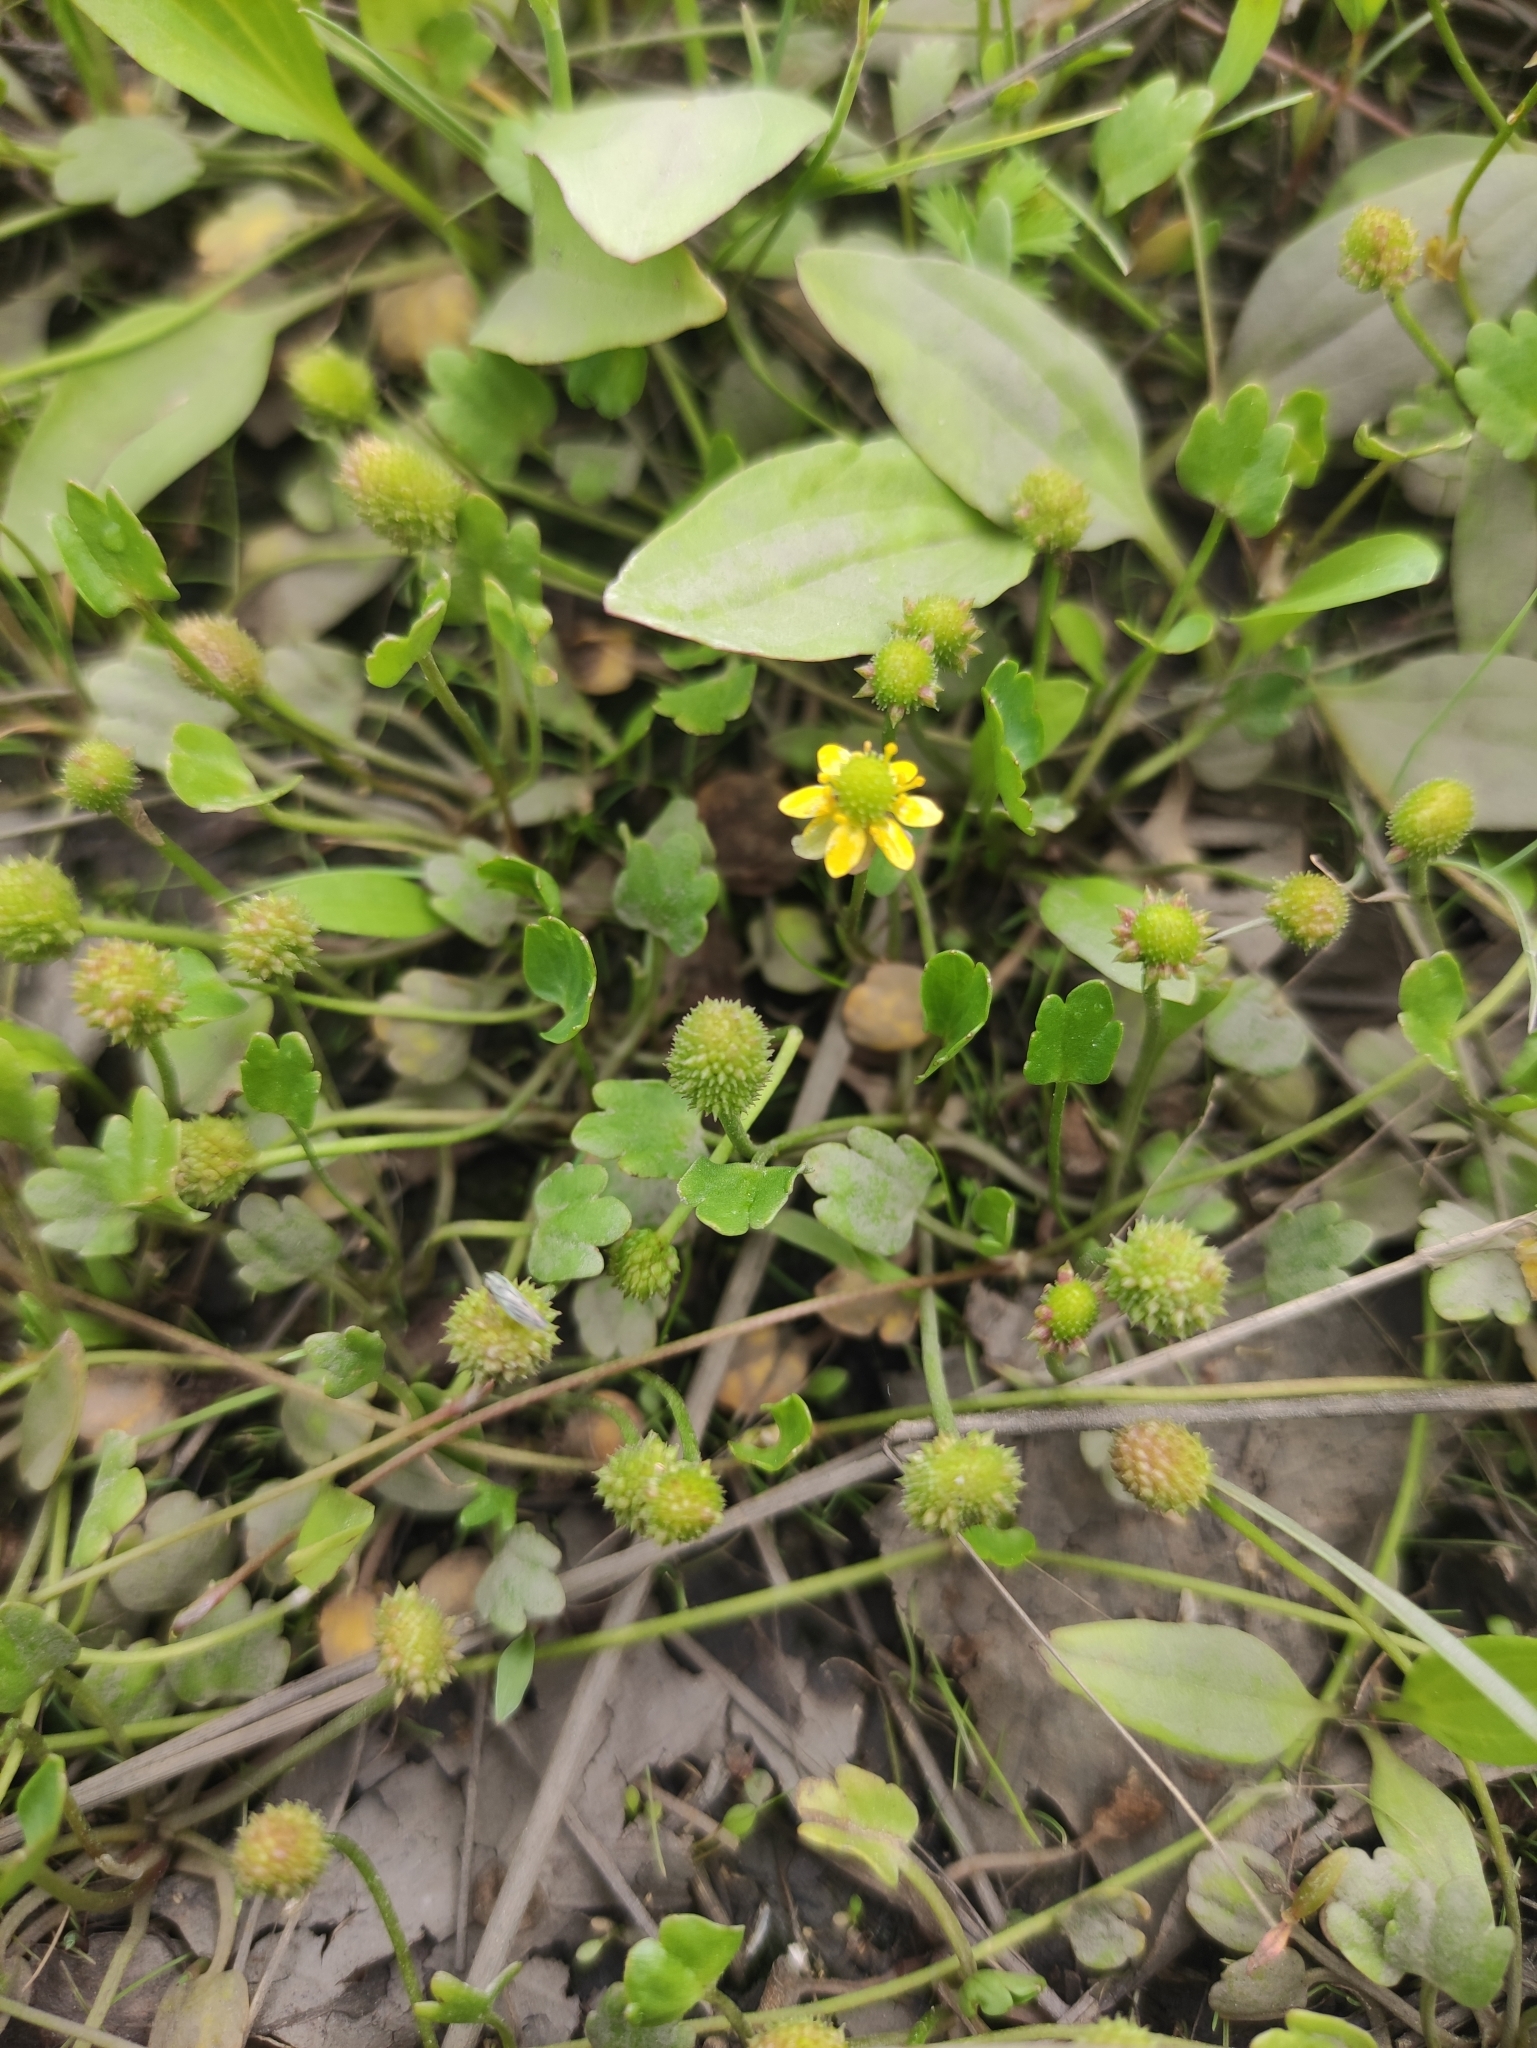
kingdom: Plantae
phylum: Tracheophyta
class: Magnoliopsida
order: Ranunculales
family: Ranunculaceae
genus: Halerpestes
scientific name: Halerpestes sarmentosus
